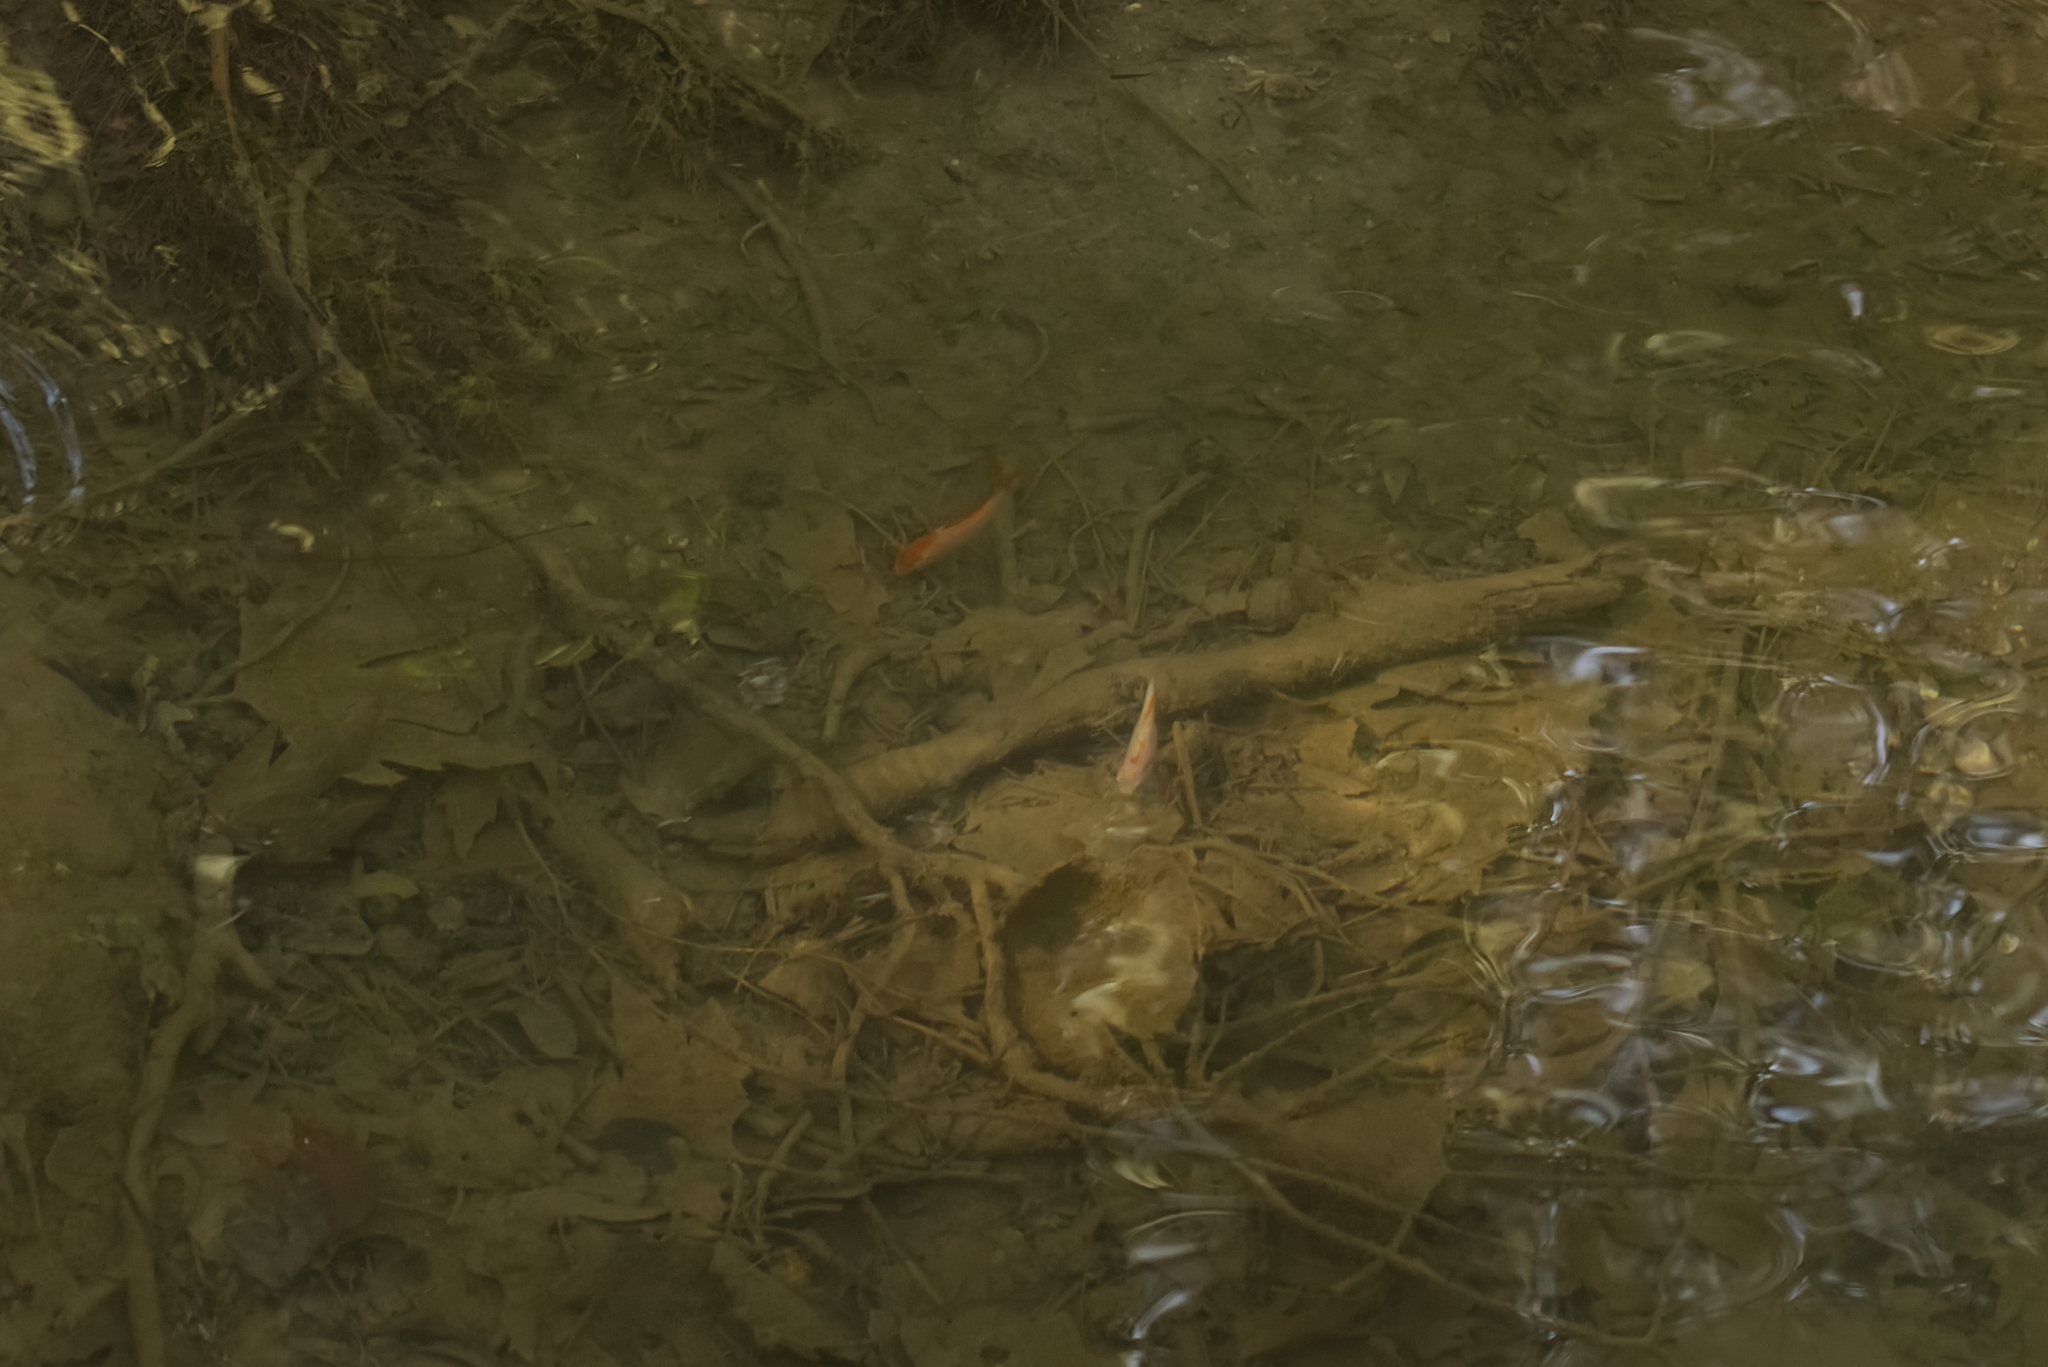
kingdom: Animalia
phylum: Chordata
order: Cypriniformes
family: Cyprinidae
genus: Carassius
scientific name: Carassius auratus
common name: Goldfish
